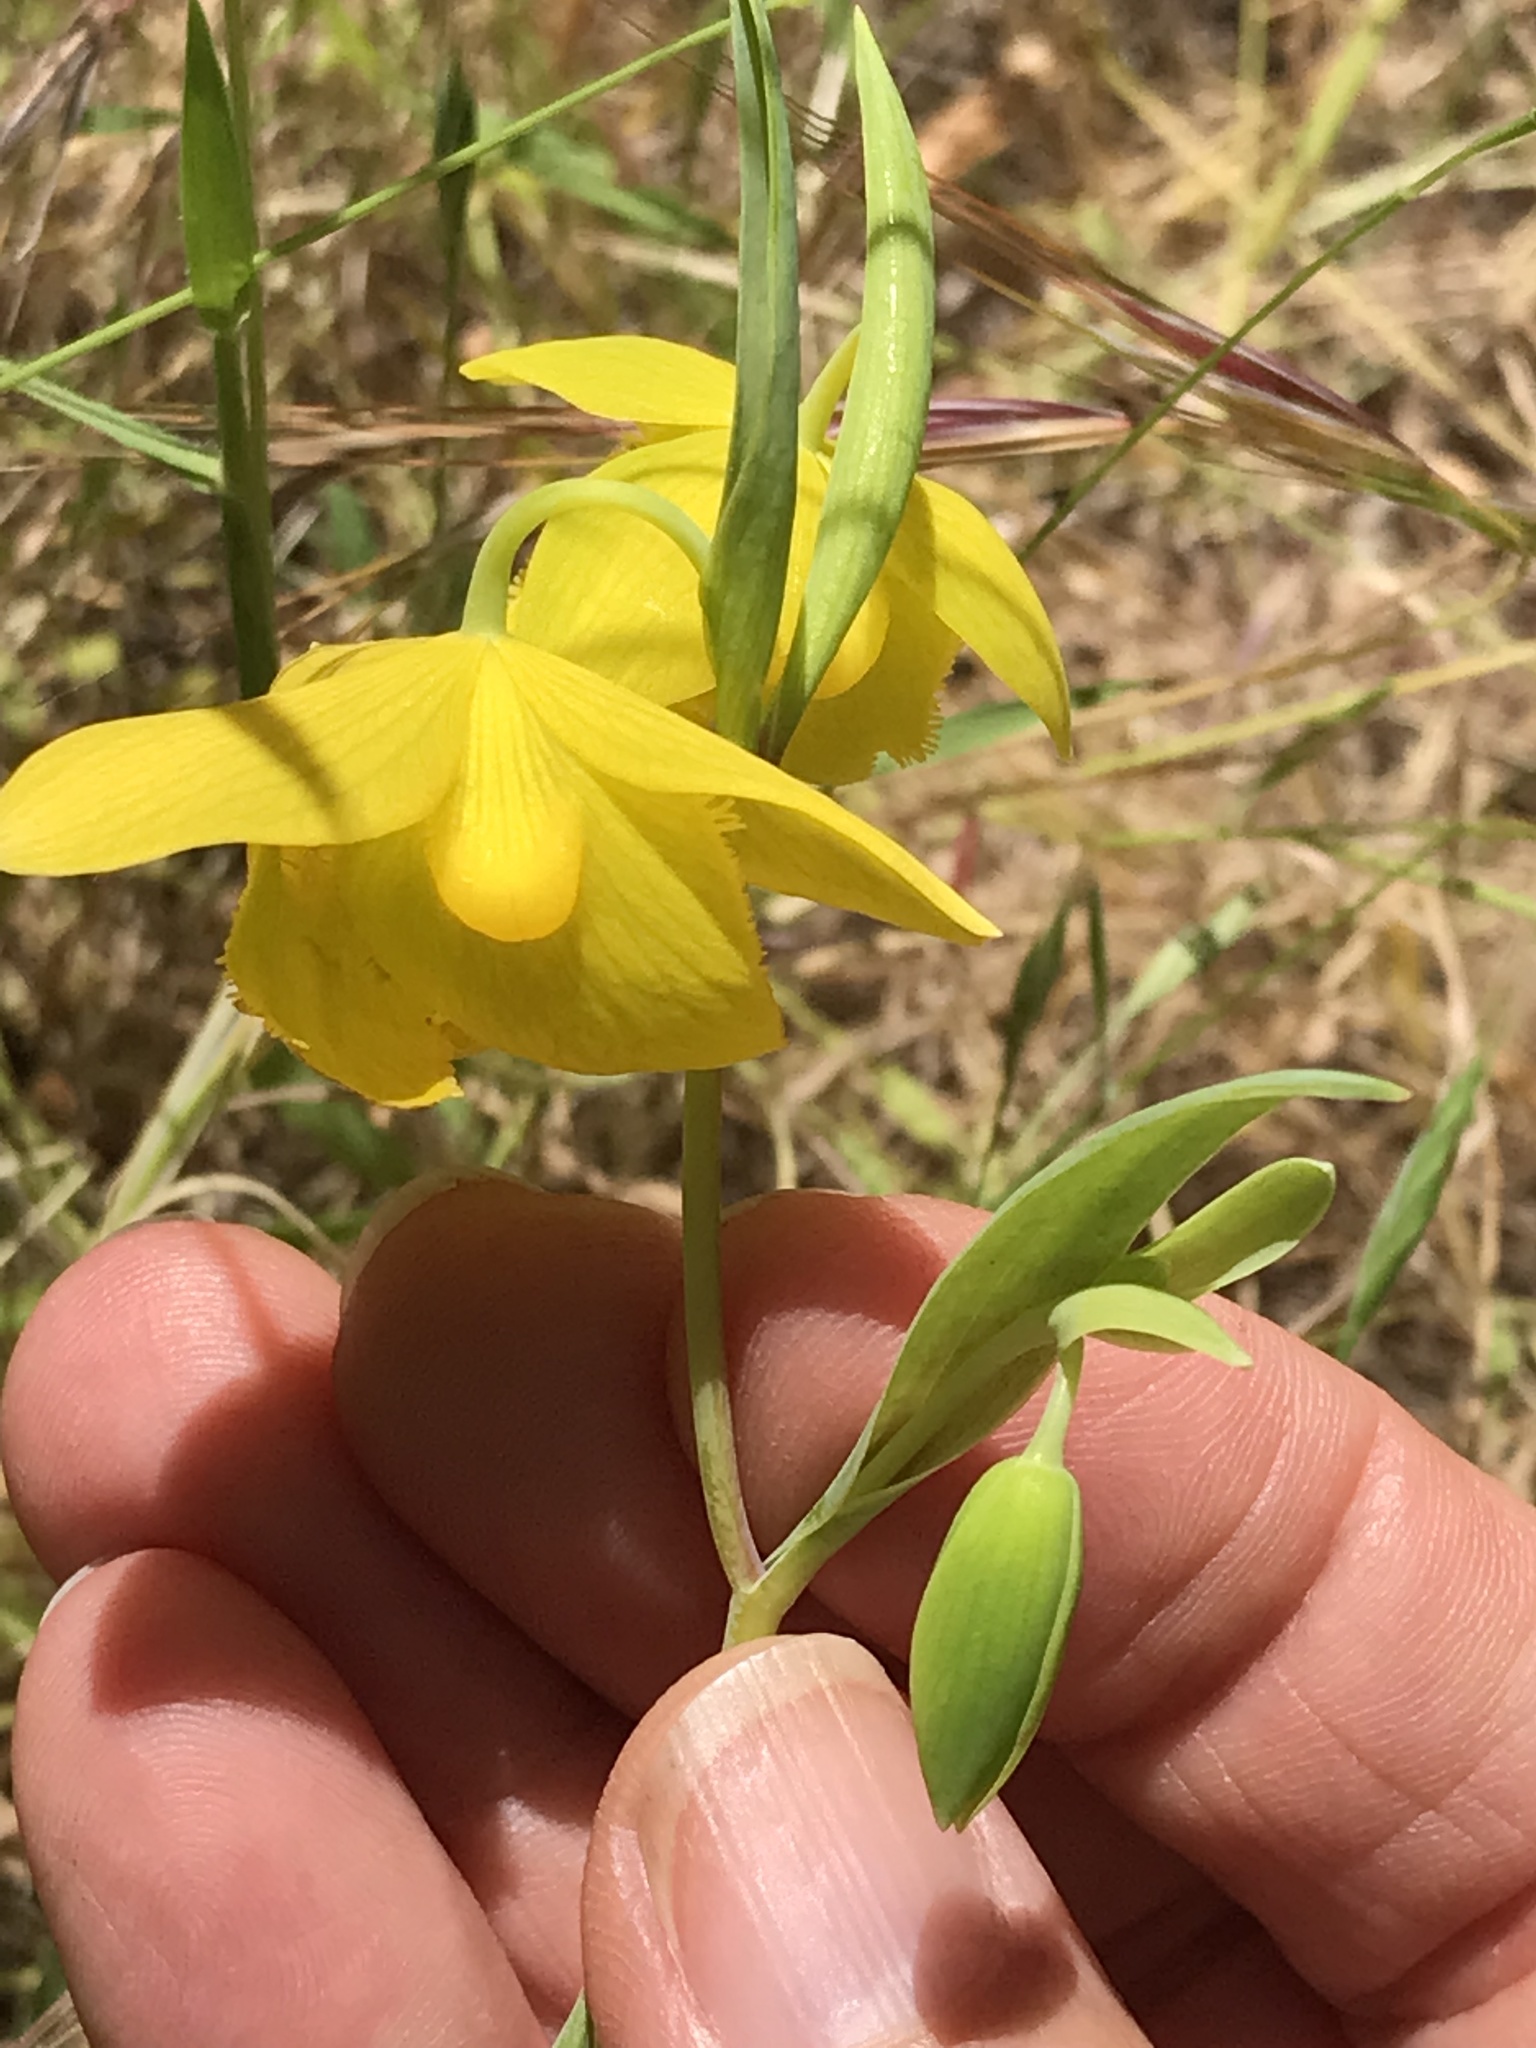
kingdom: Plantae
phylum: Tracheophyta
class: Liliopsida
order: Liliales
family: Liliaceae
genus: Calochortus
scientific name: Calochortus amabilis
